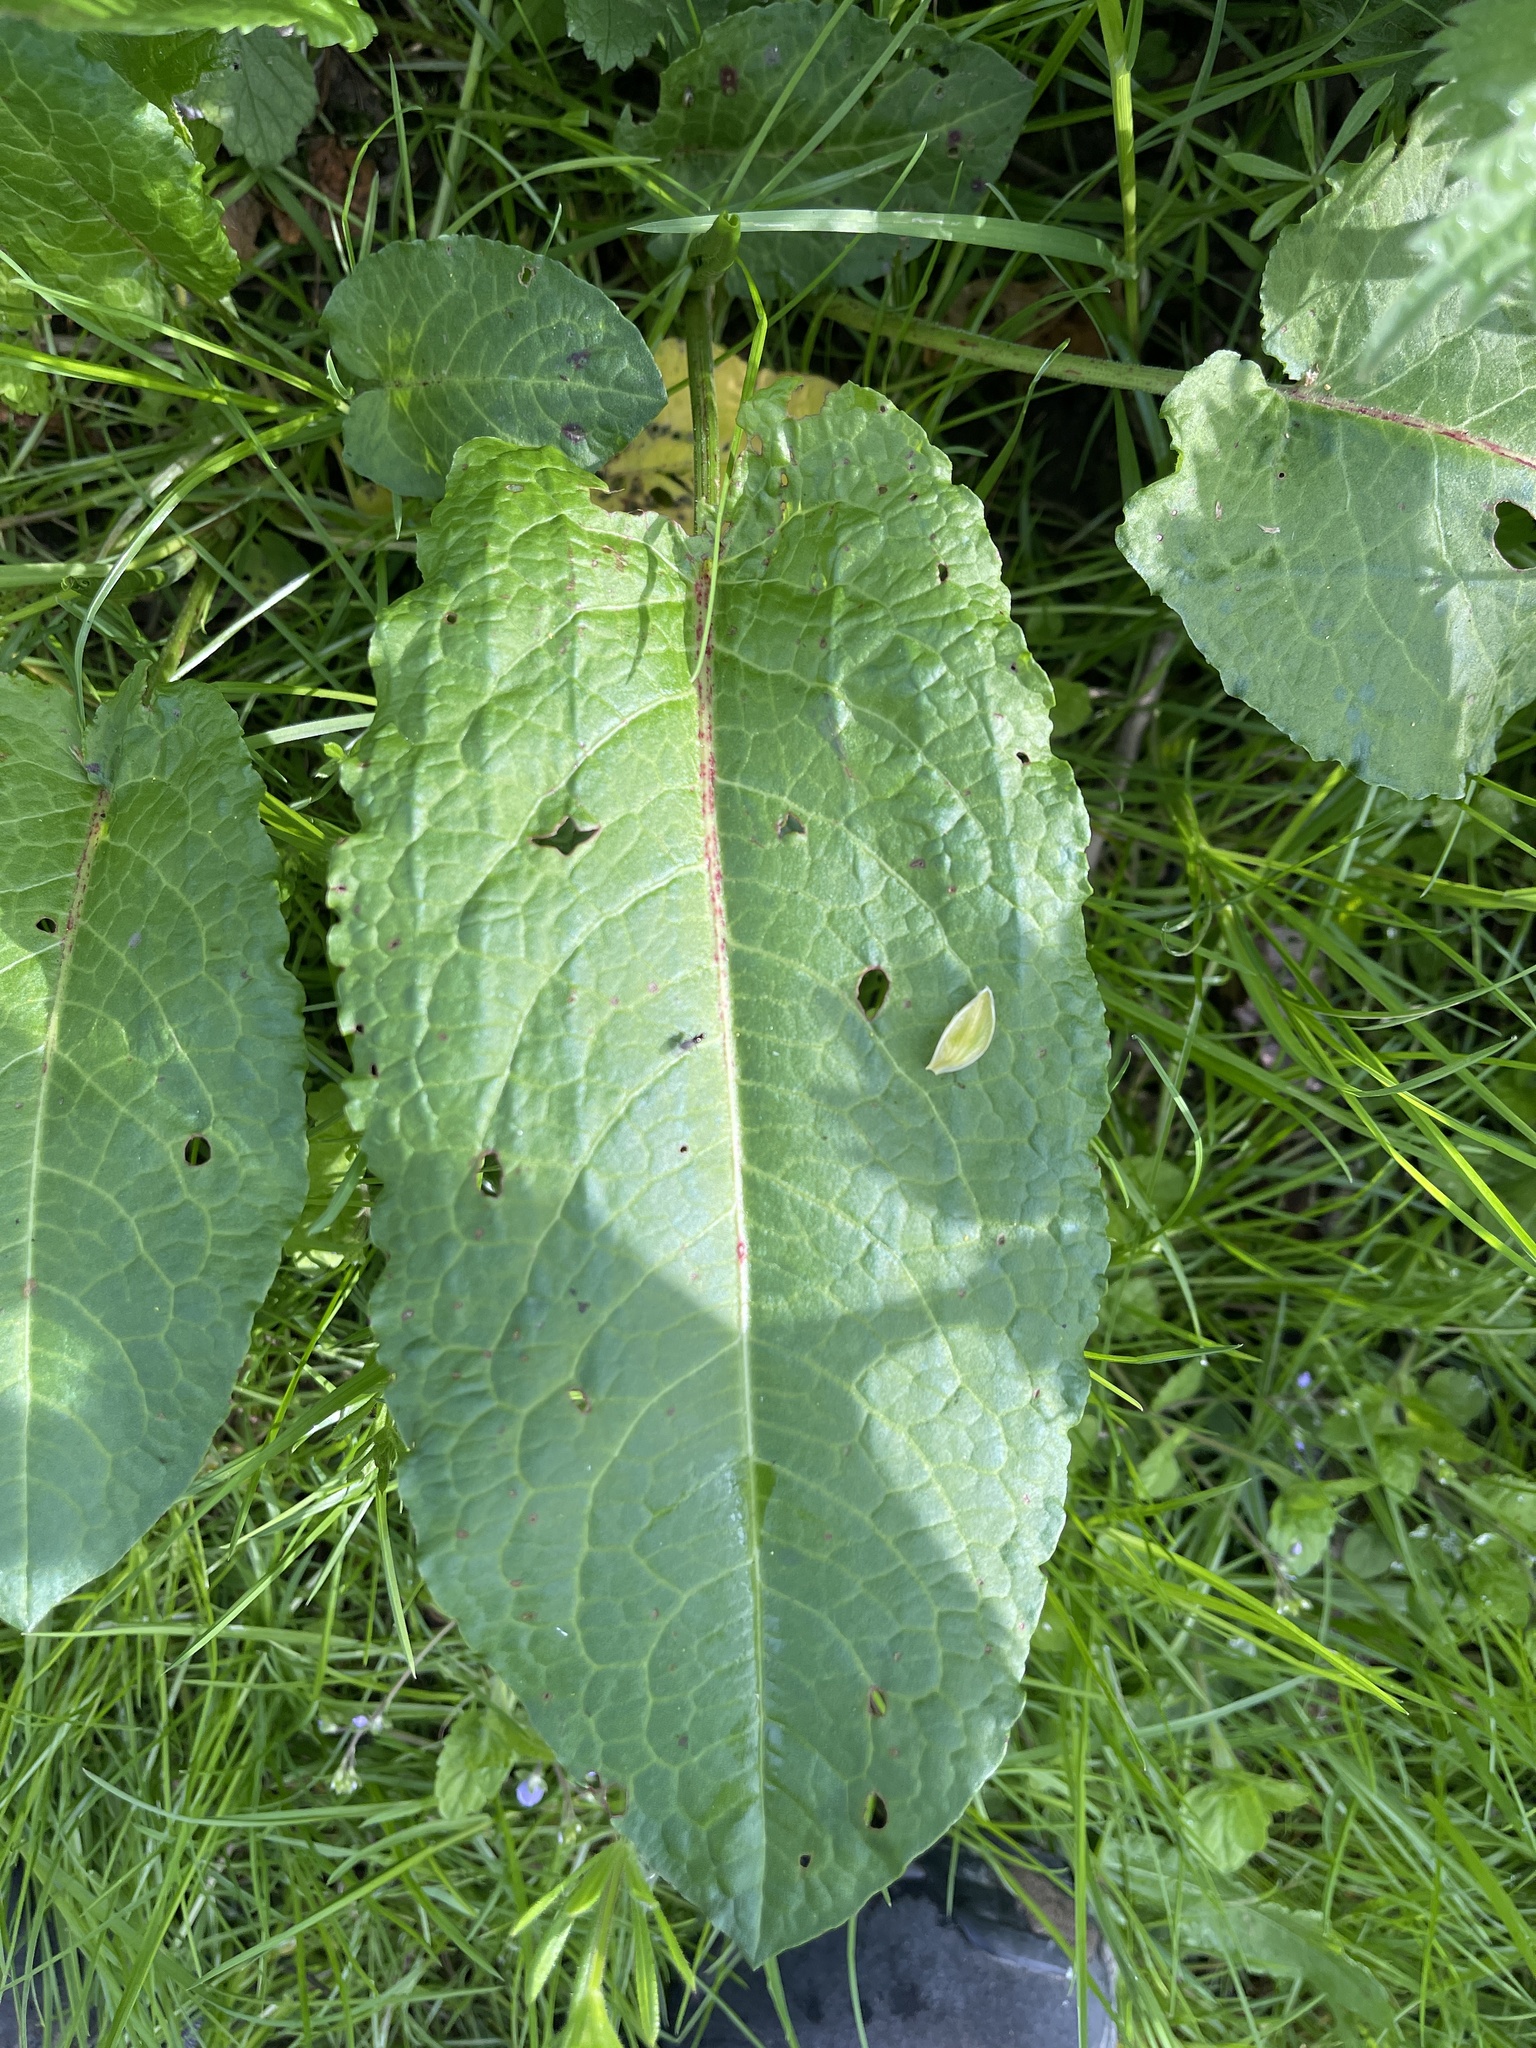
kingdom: Plantae
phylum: Tracheophyta
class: Magnoliopsida
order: Caryophyllales
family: Polygonaceae
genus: Rumex
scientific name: Rumex obtusifolius
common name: Bitter dock
